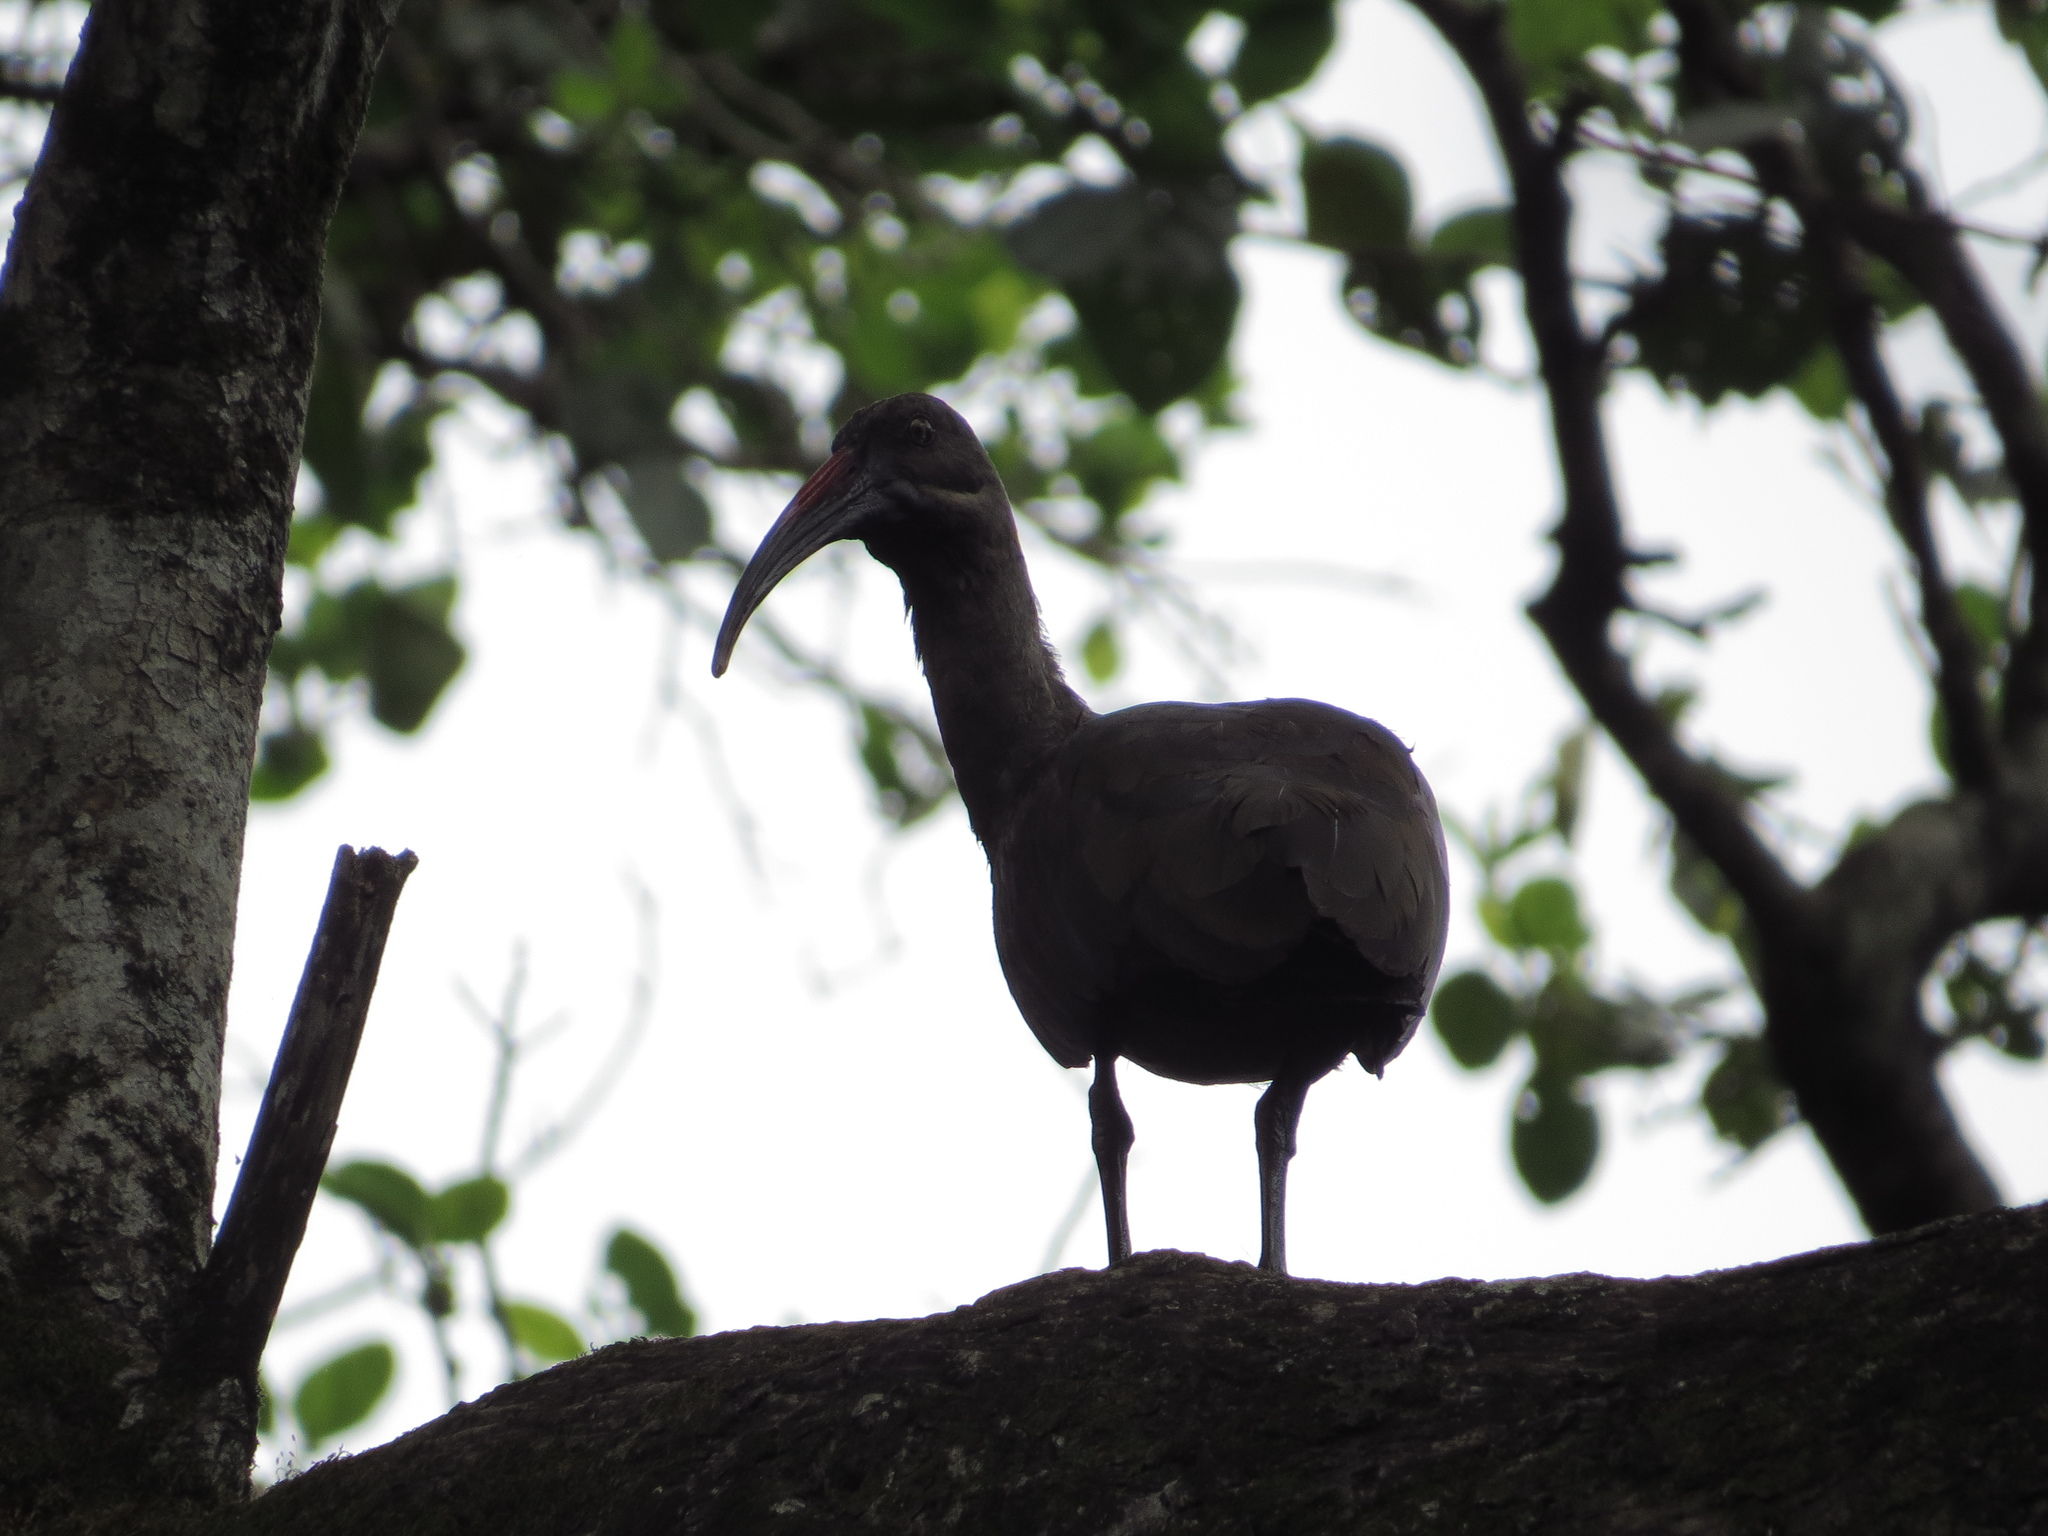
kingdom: Animalia
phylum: Chordata
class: Aves
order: Pelecaniformes
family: Threskiornithidae
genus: Bostrychia
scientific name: Bostrychia hagedash
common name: Hadada ibis
